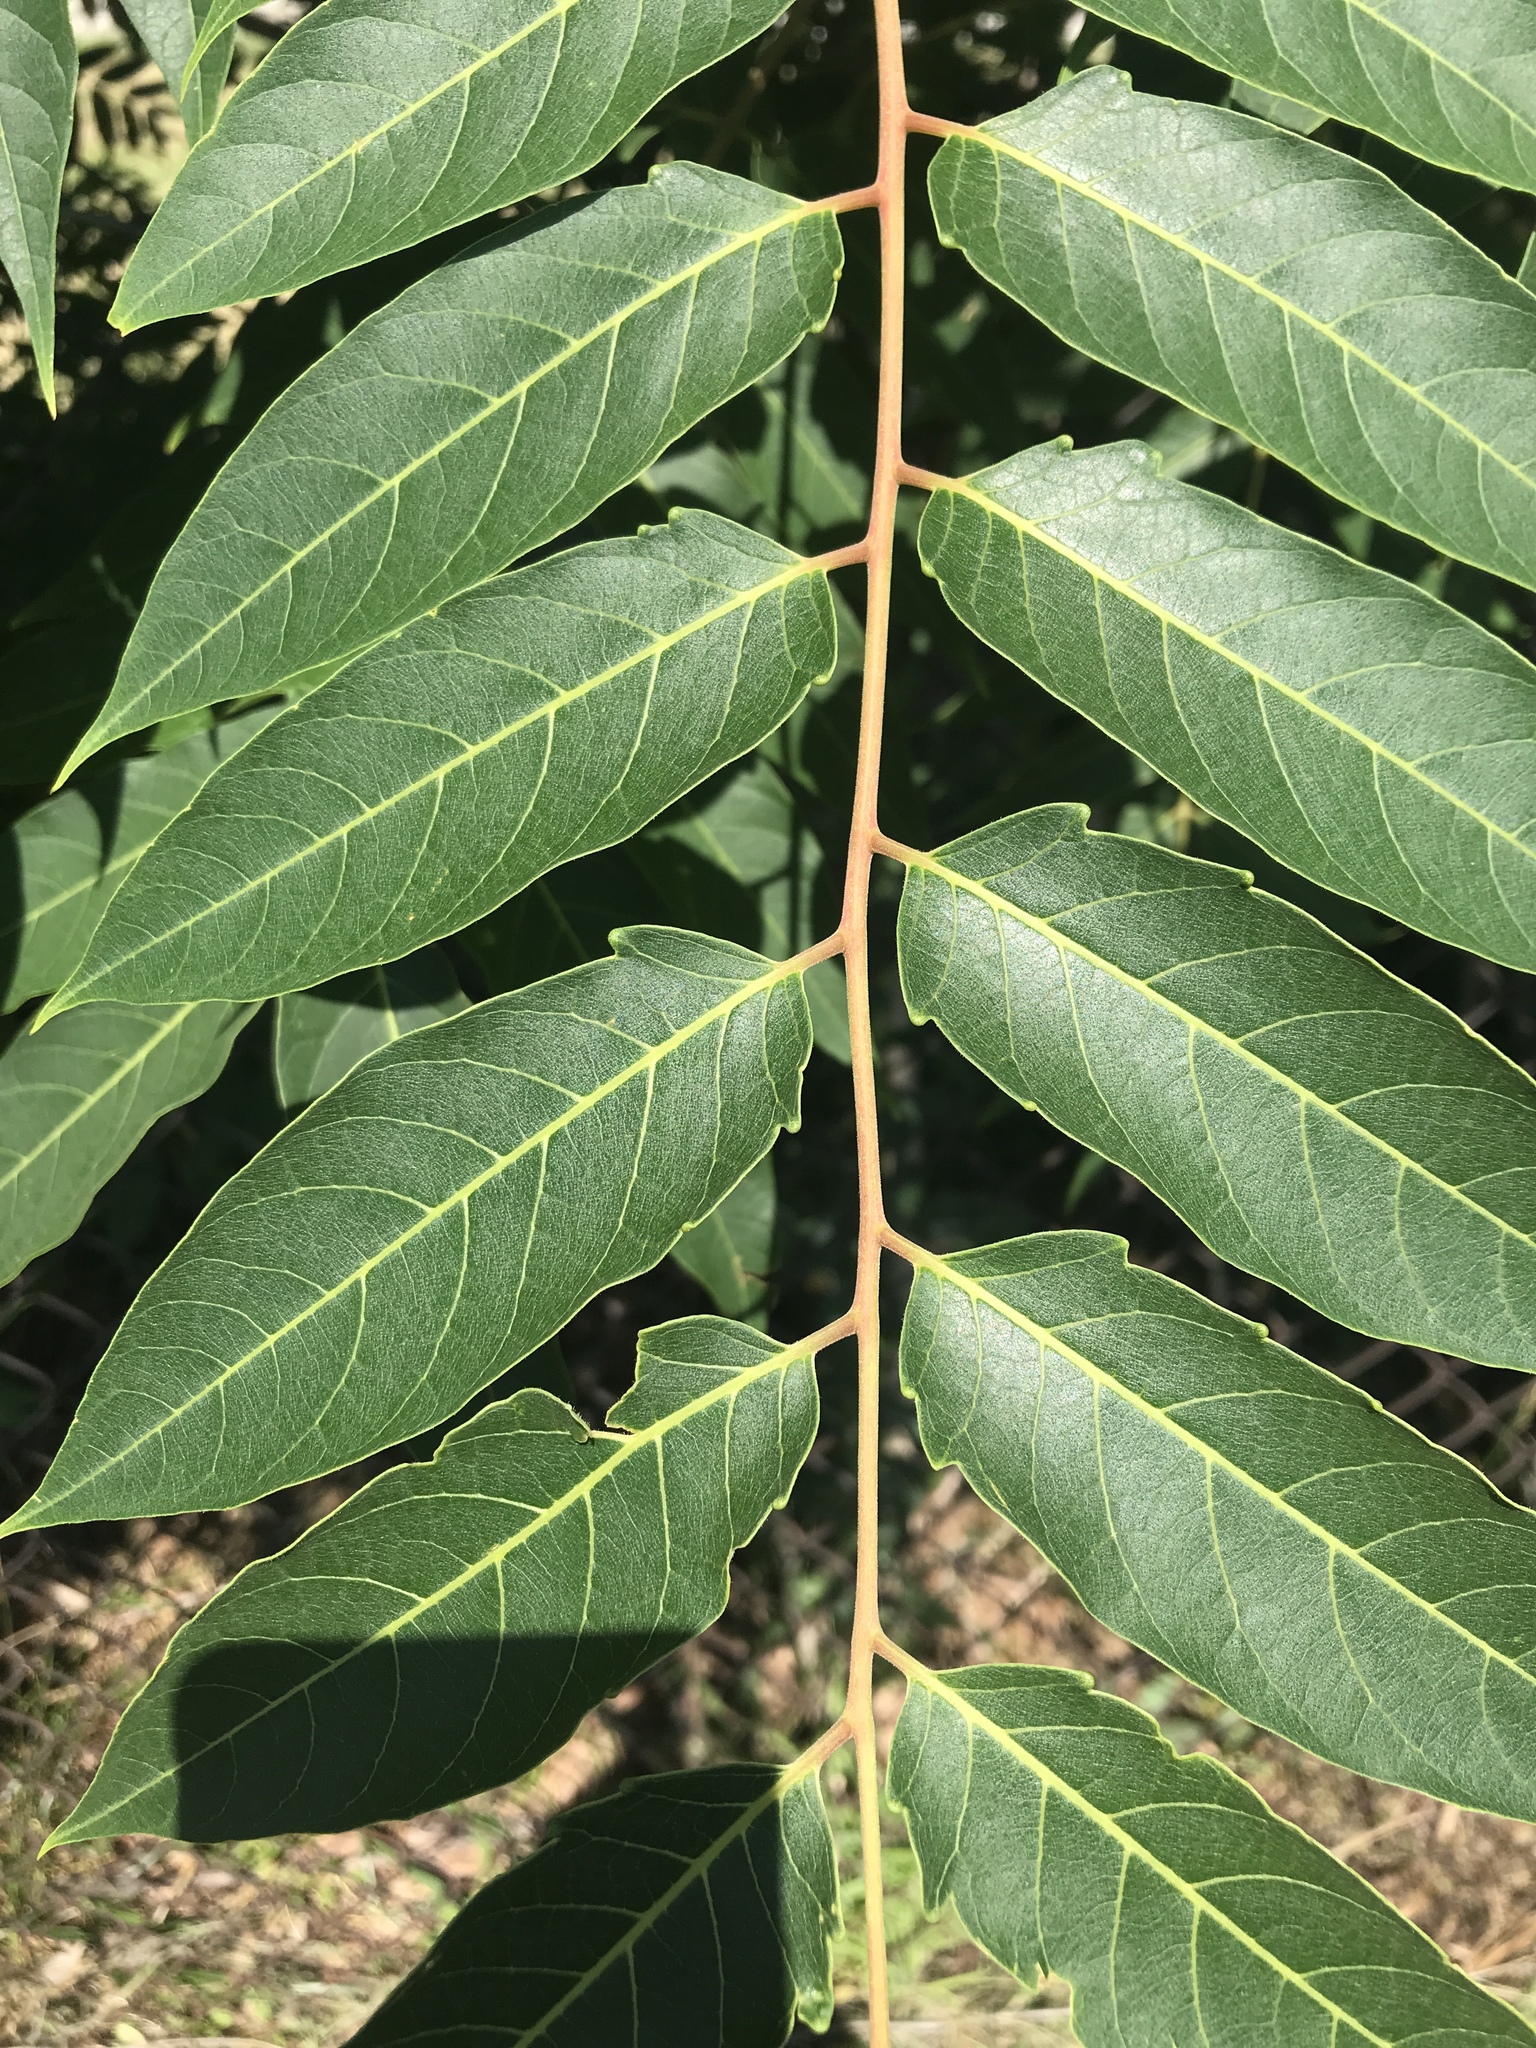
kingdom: Plantae
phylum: Tracheophyta
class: Magnoliopsida
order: Sapindales
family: Simaroubaceae
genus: Ailanthus
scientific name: Ailanthus altissima
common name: Tree-of-heaven
